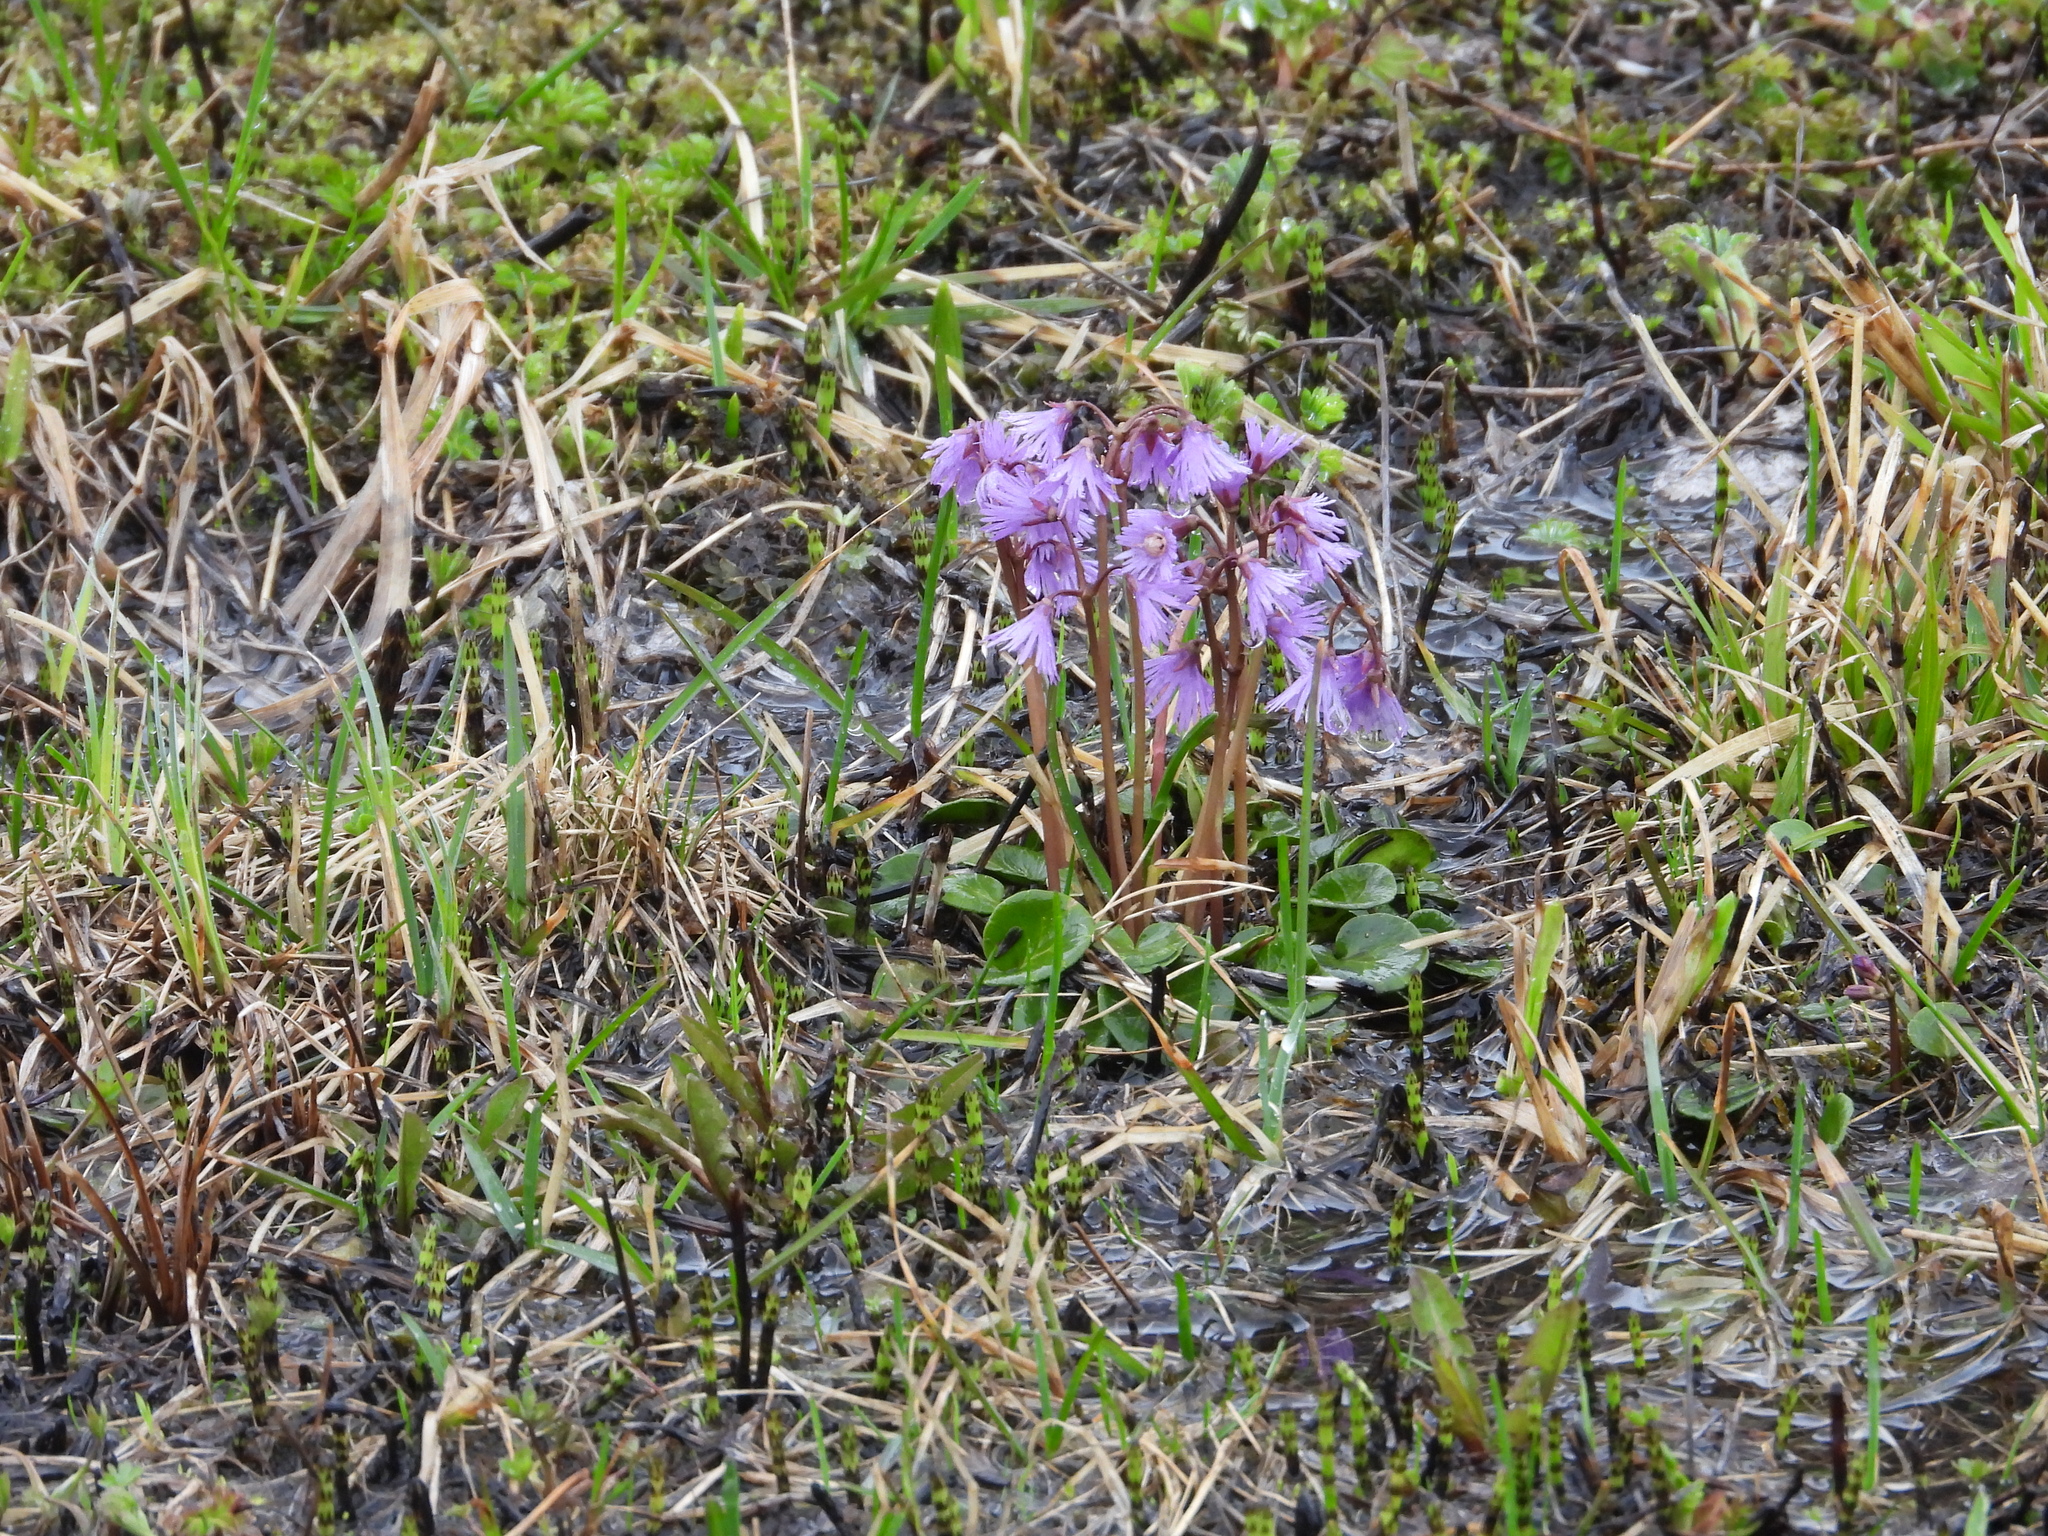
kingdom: Plantae
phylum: Tracheophyta
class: Magnoliopsida
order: Ericales
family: Primulaceae
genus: Soldanella
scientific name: Soldanella alpina
